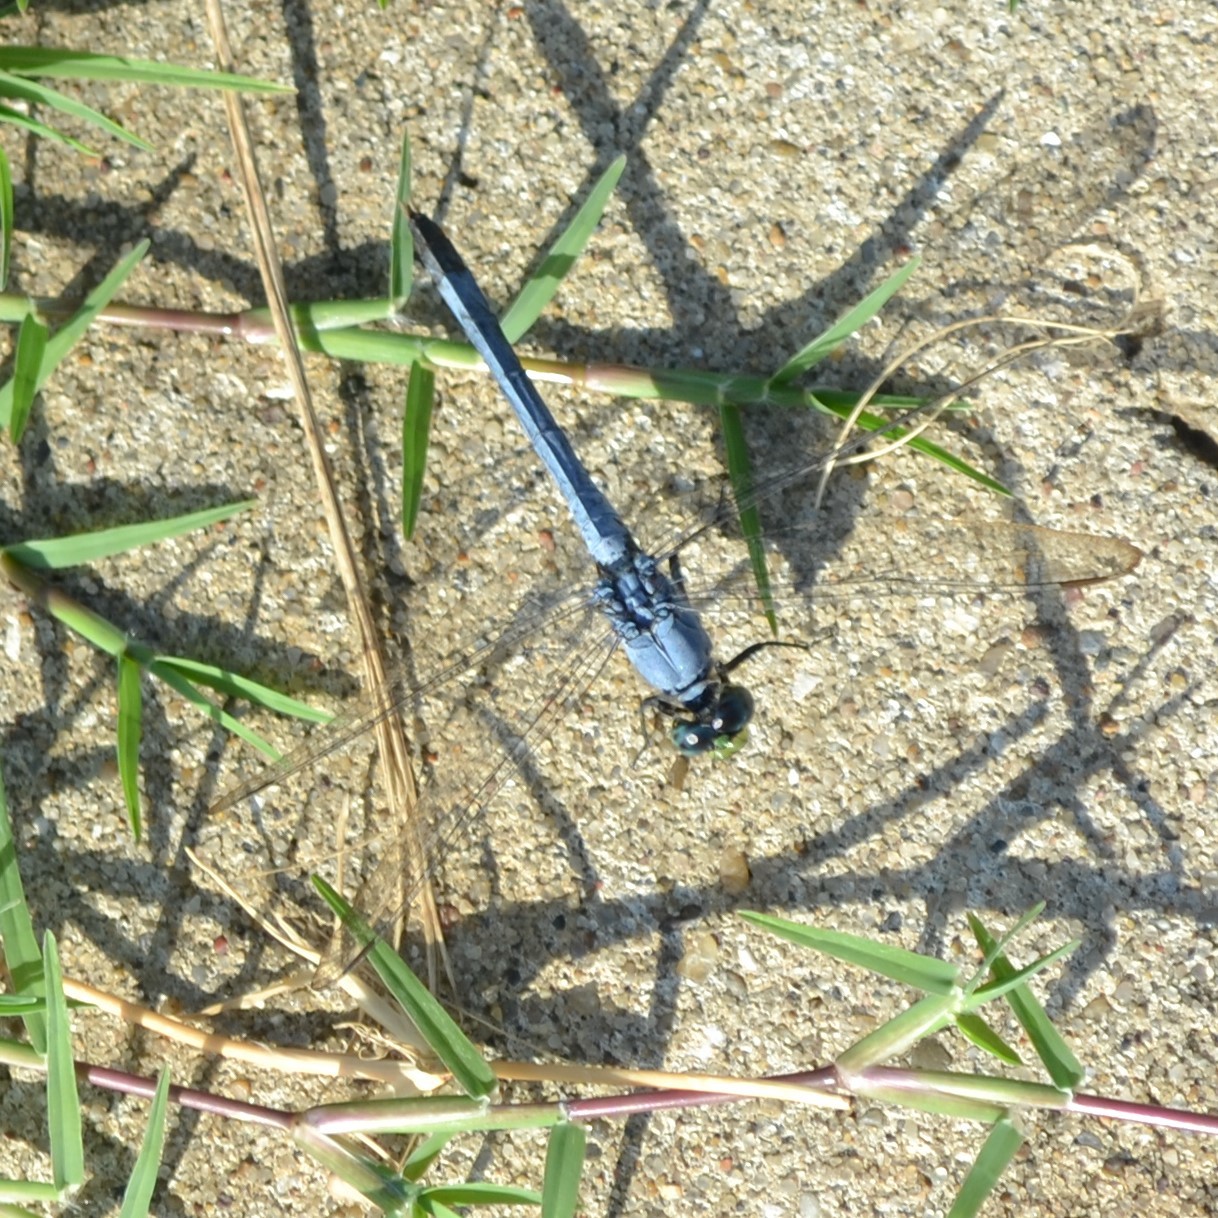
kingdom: Animalia
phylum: Arthropoda
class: Insecta
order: Odonata
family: Libellulidae
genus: Erythemis
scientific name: Erythemis simplicicollis
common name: Eastern pondhawk
